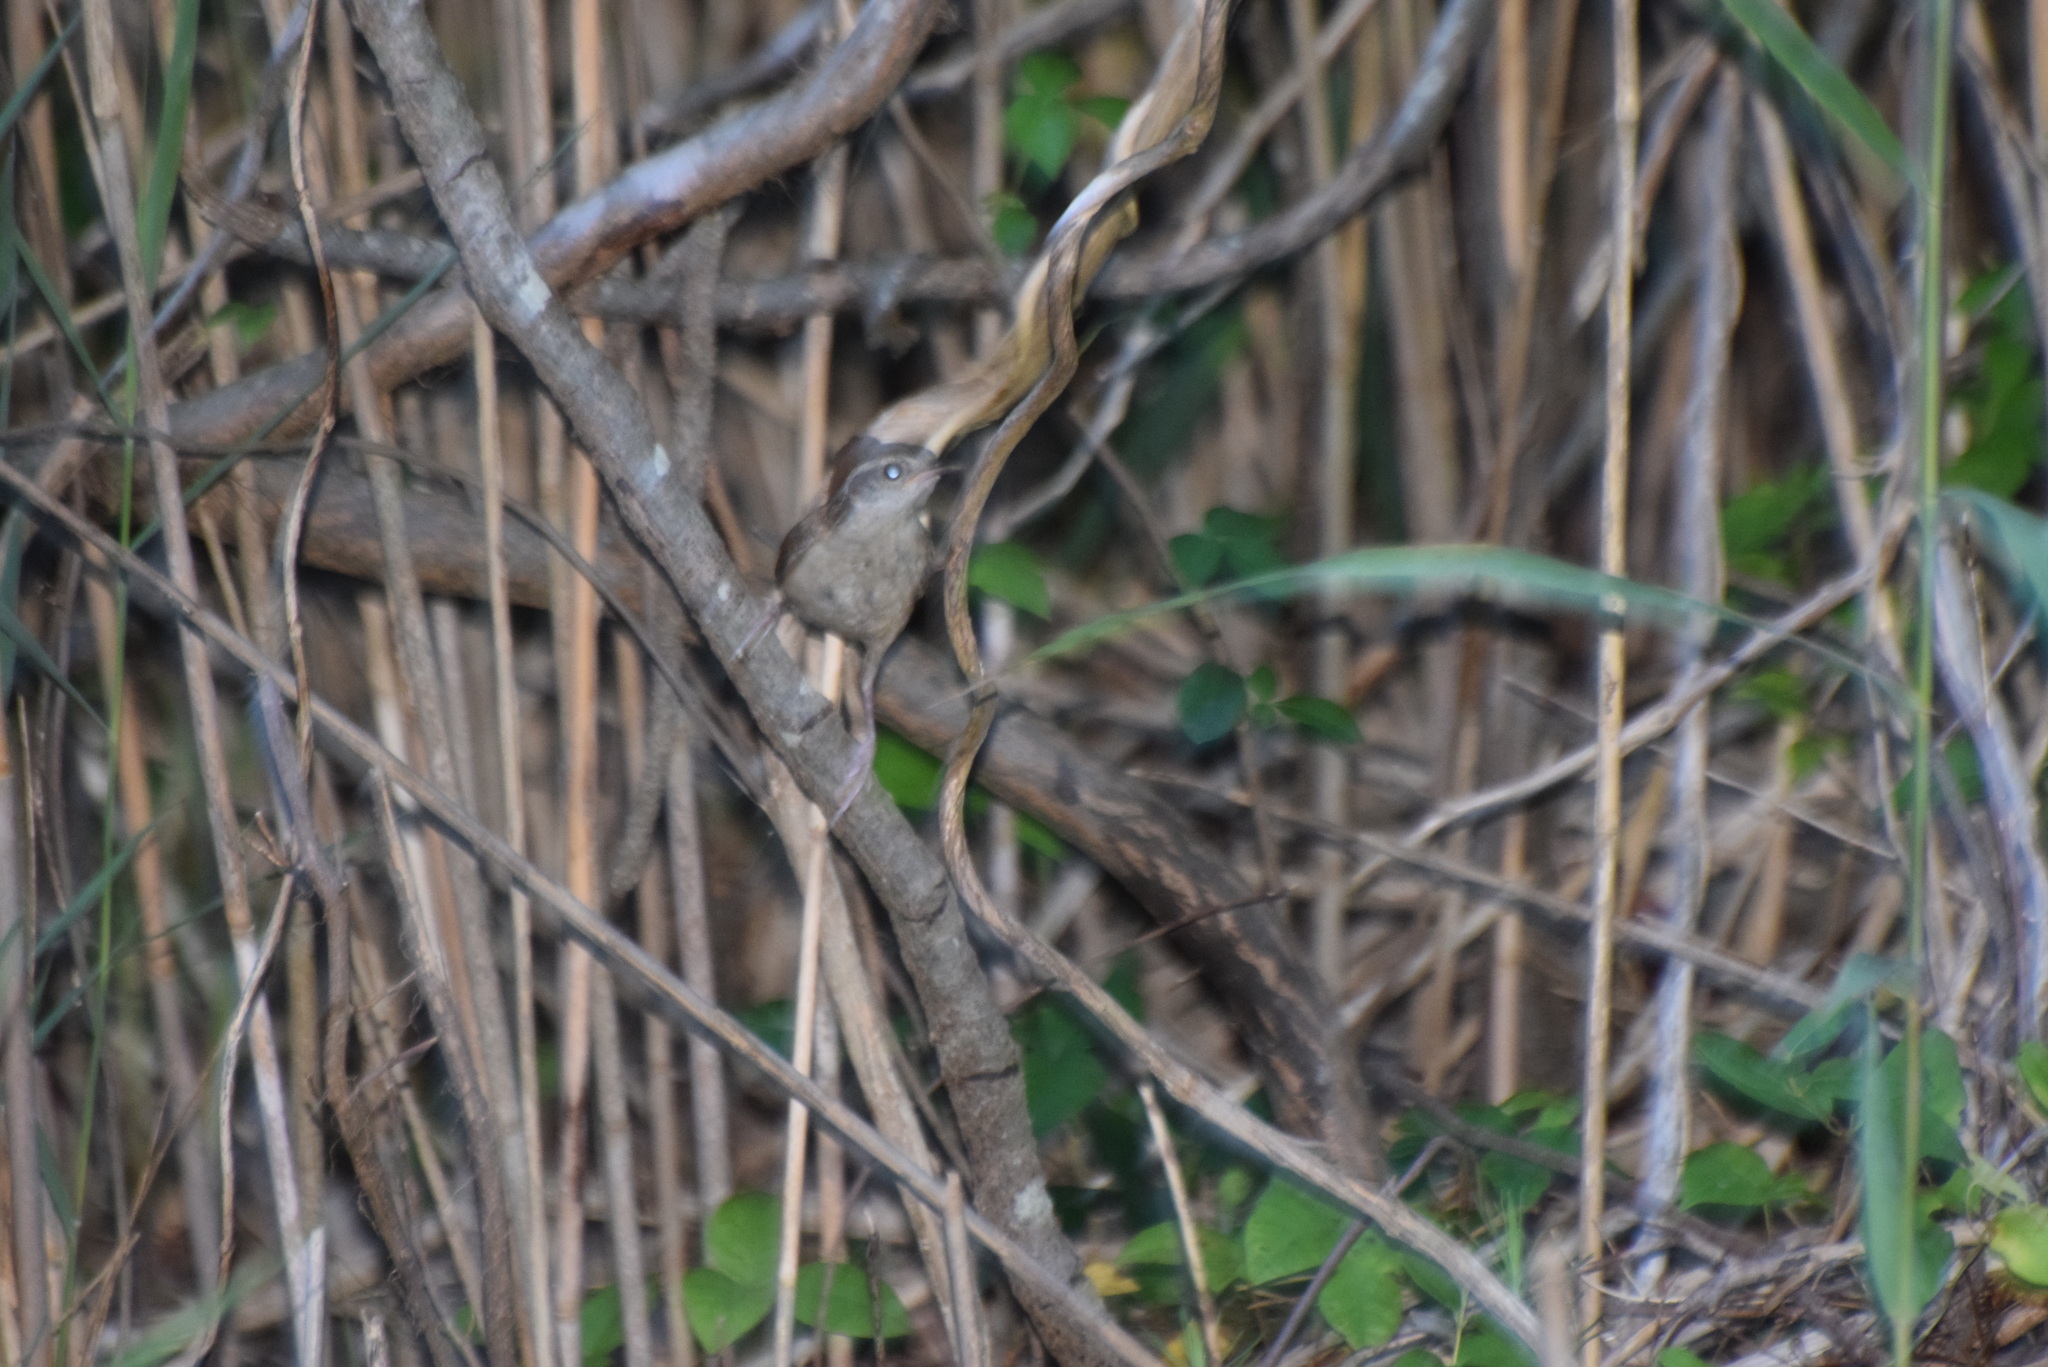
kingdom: Animalia
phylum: Chordata
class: Aves
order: Passeriformes
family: Troglodytidae
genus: Cistothorus
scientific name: Cistothorus palustris
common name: Marsh wren
